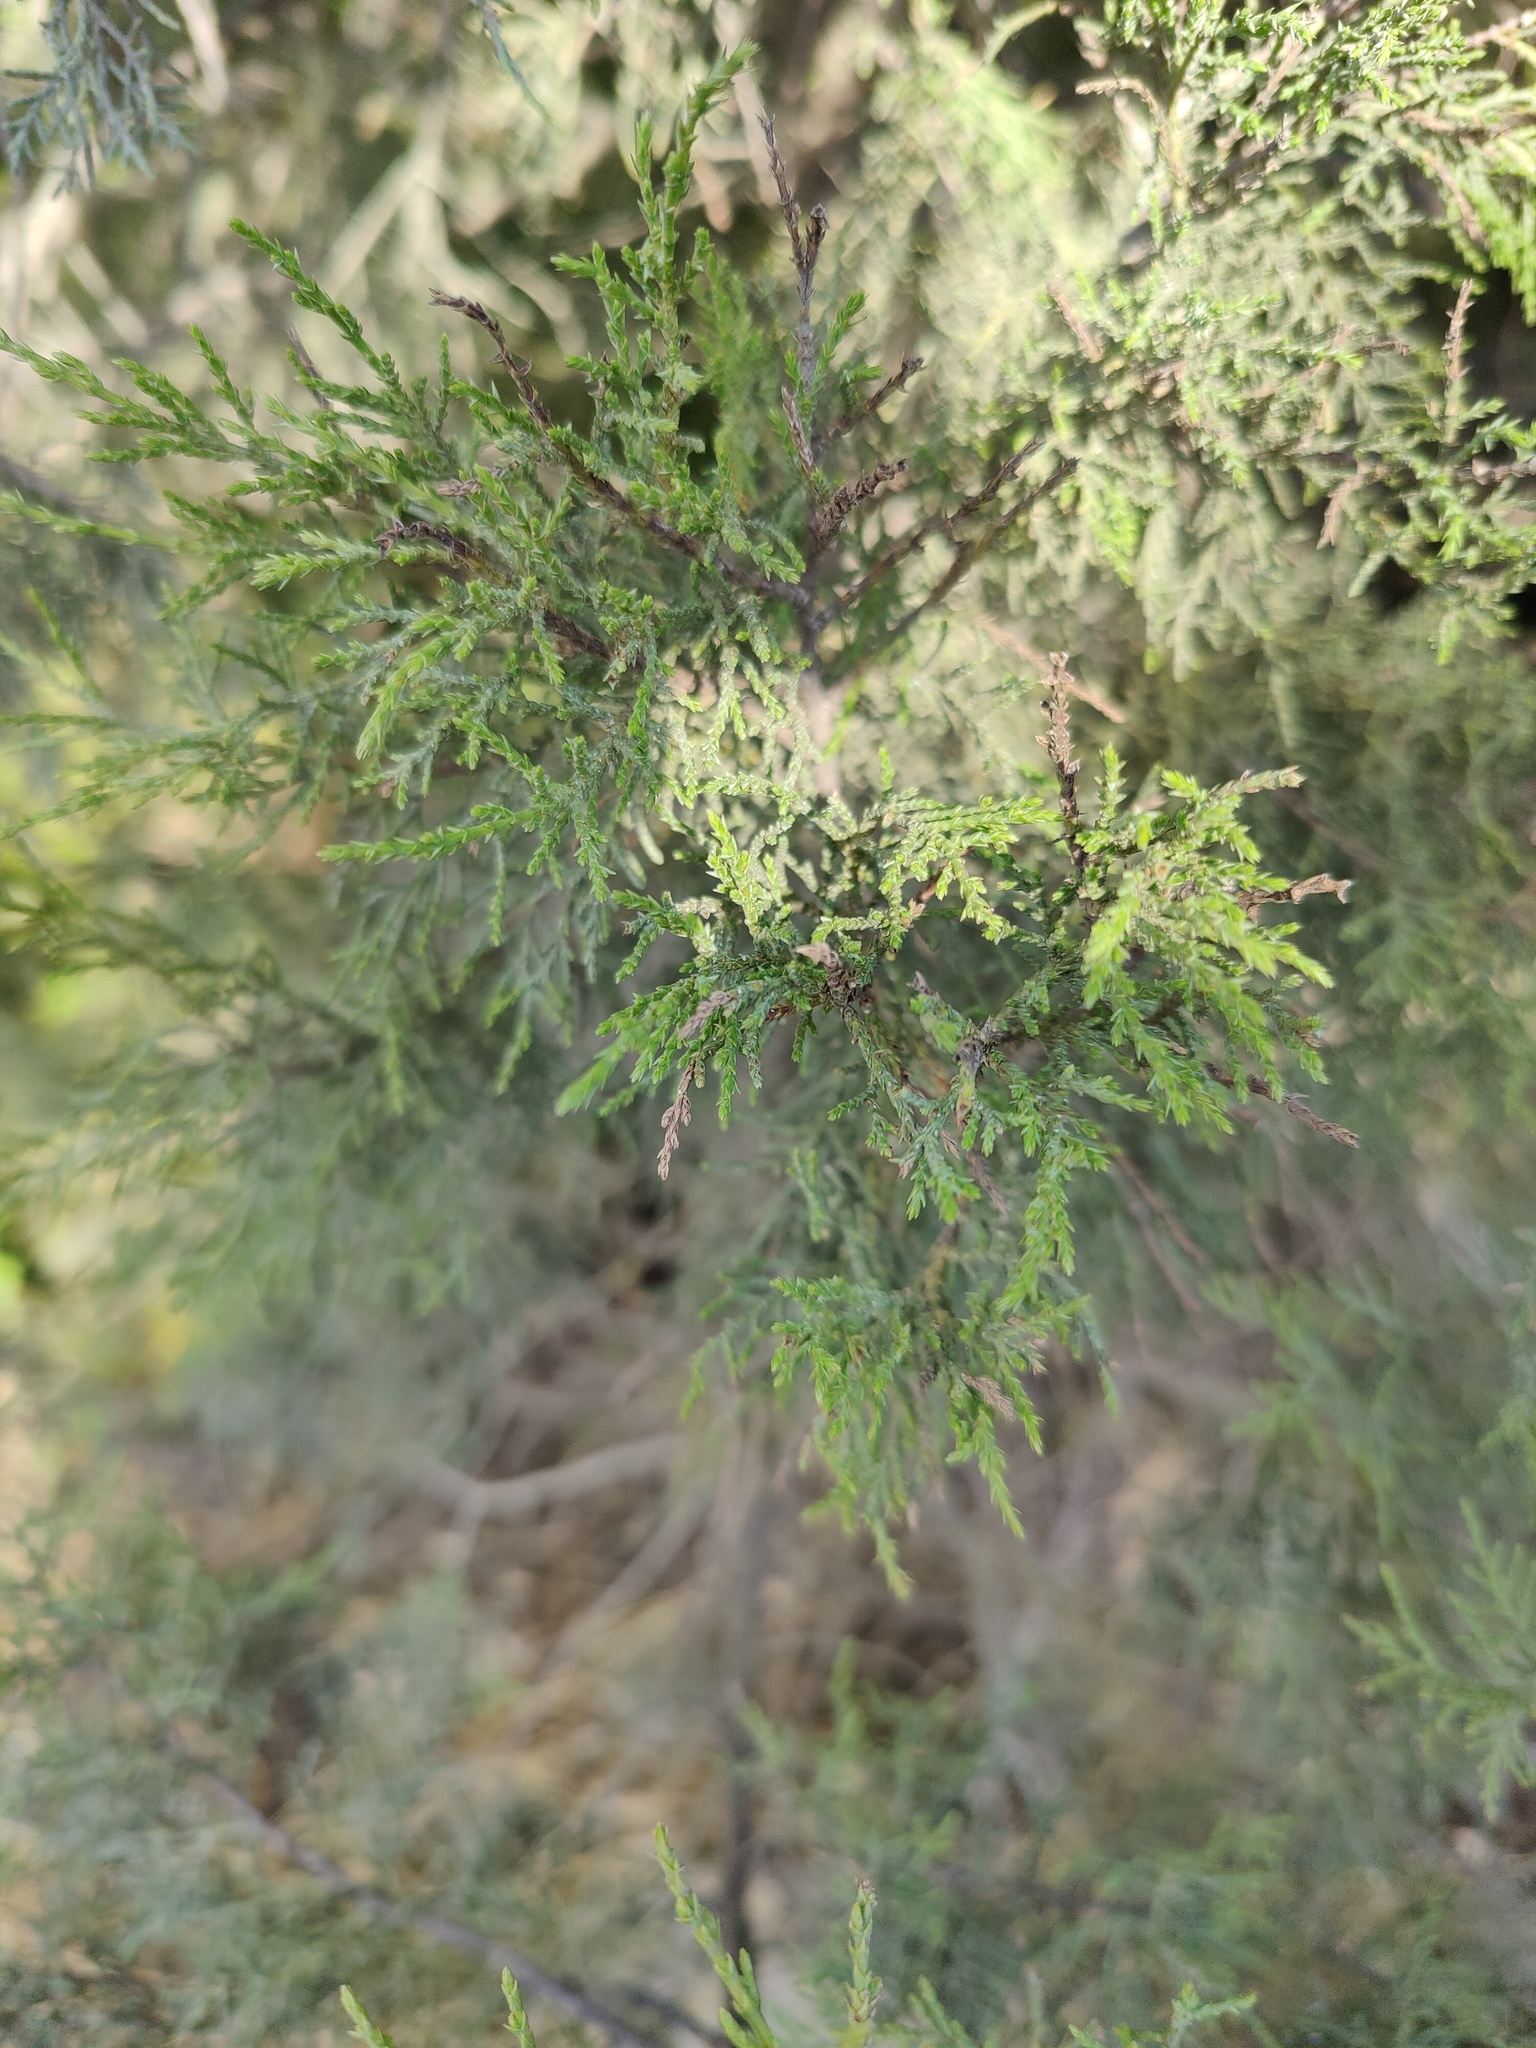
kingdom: Plantae
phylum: Tracheophyta
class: Pinopsida
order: Pinales
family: Cupressaceae
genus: Juniperus
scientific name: Juniperus foetidissima
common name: Stinking juniper
